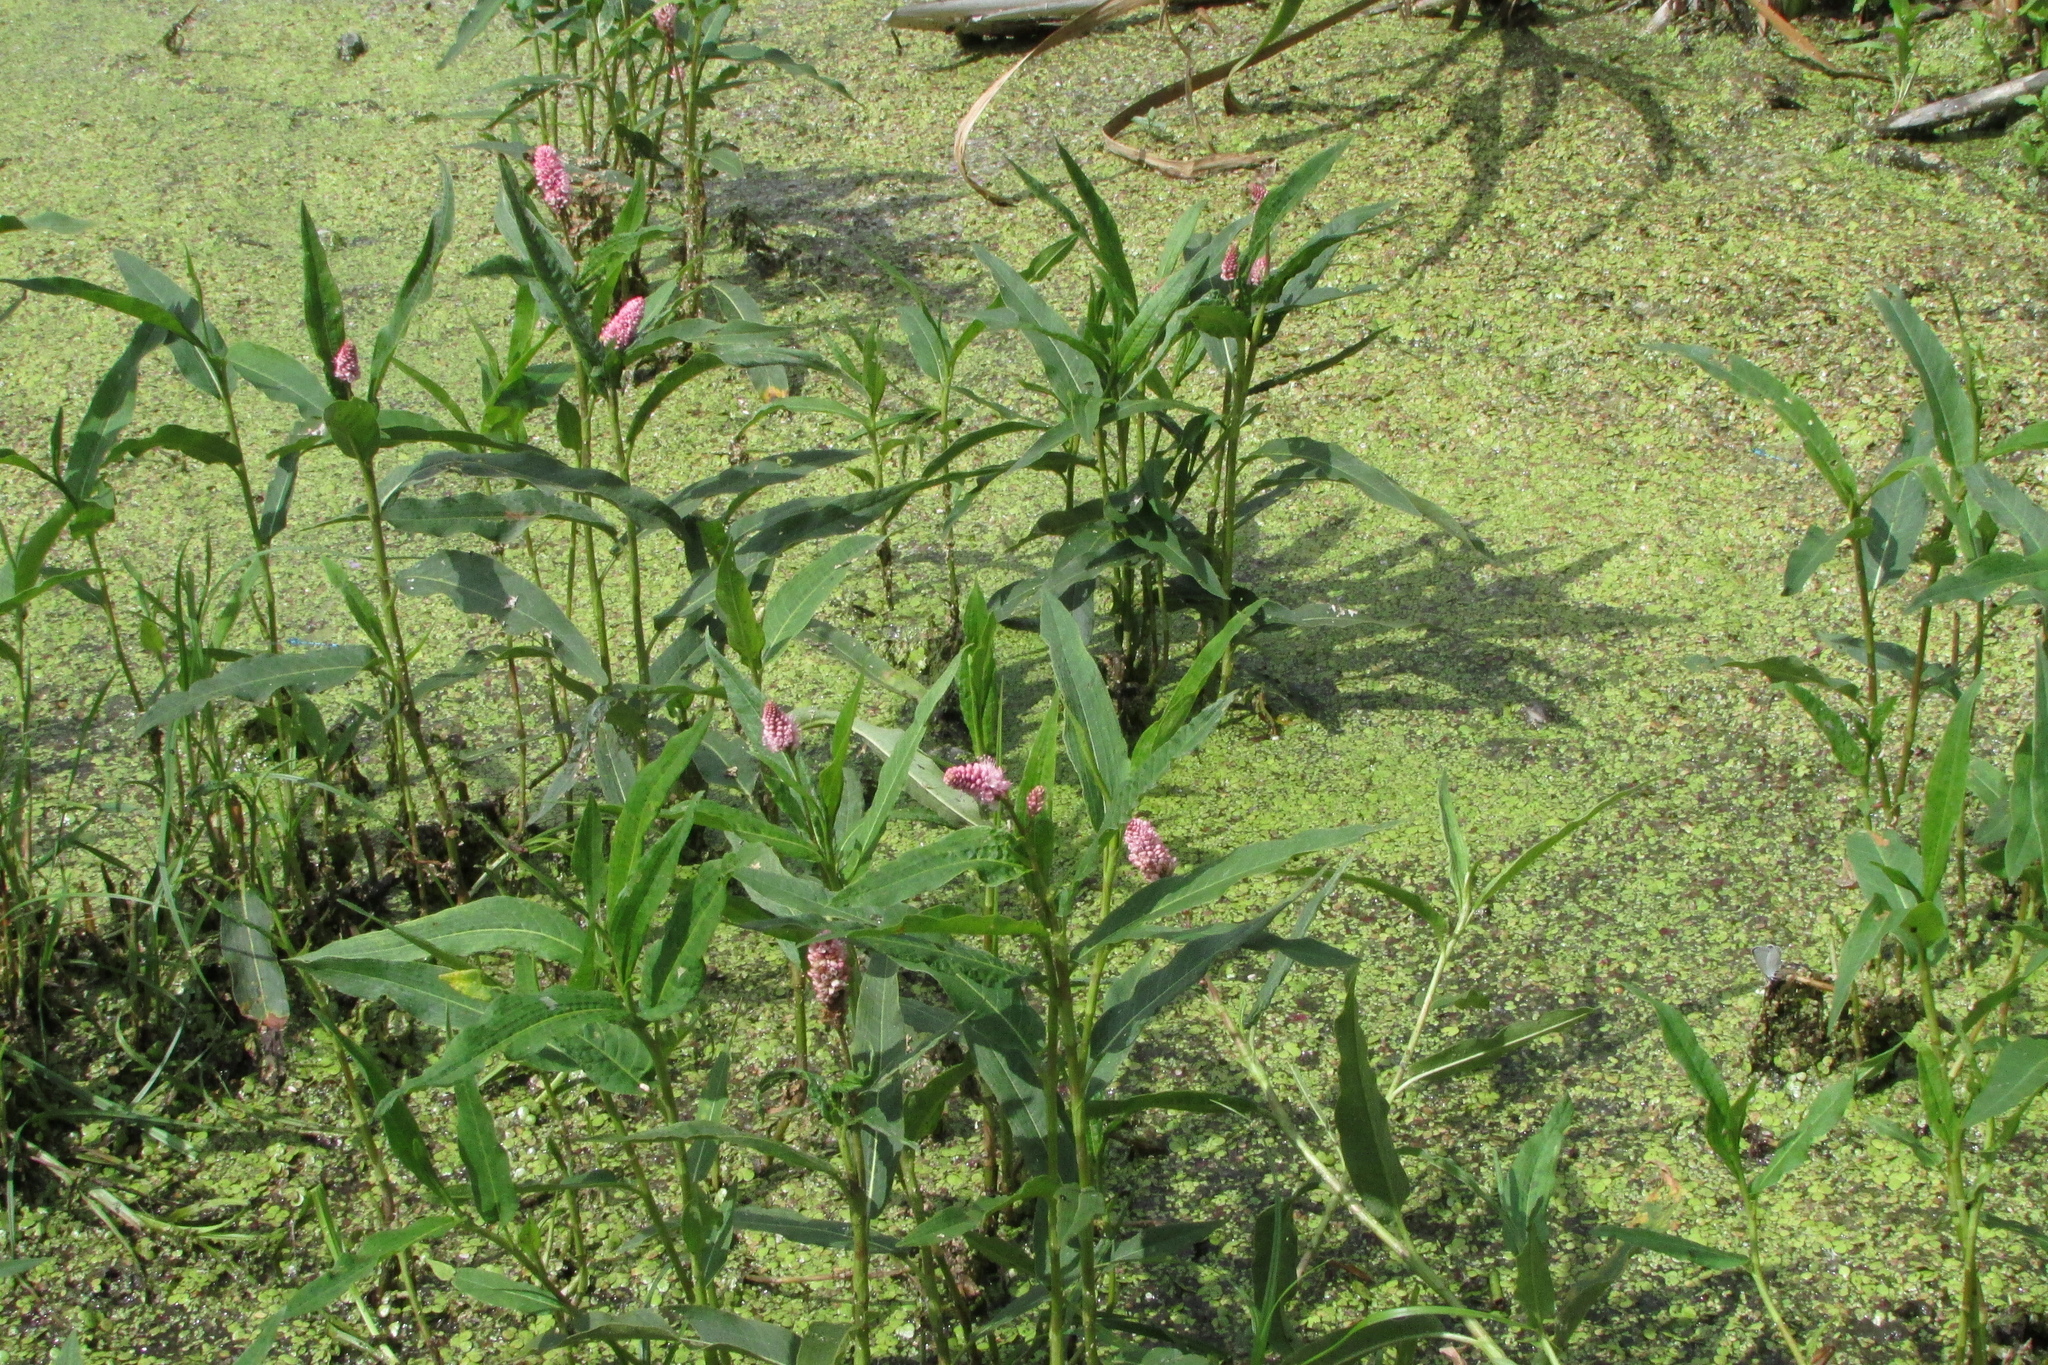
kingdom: Plantae
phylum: Tracheophyta
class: Magnoliopsida
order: Caryophyllales
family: Polygonaceae
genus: Persicaria
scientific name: Persicaria amphibia
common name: Amphibious bistort
